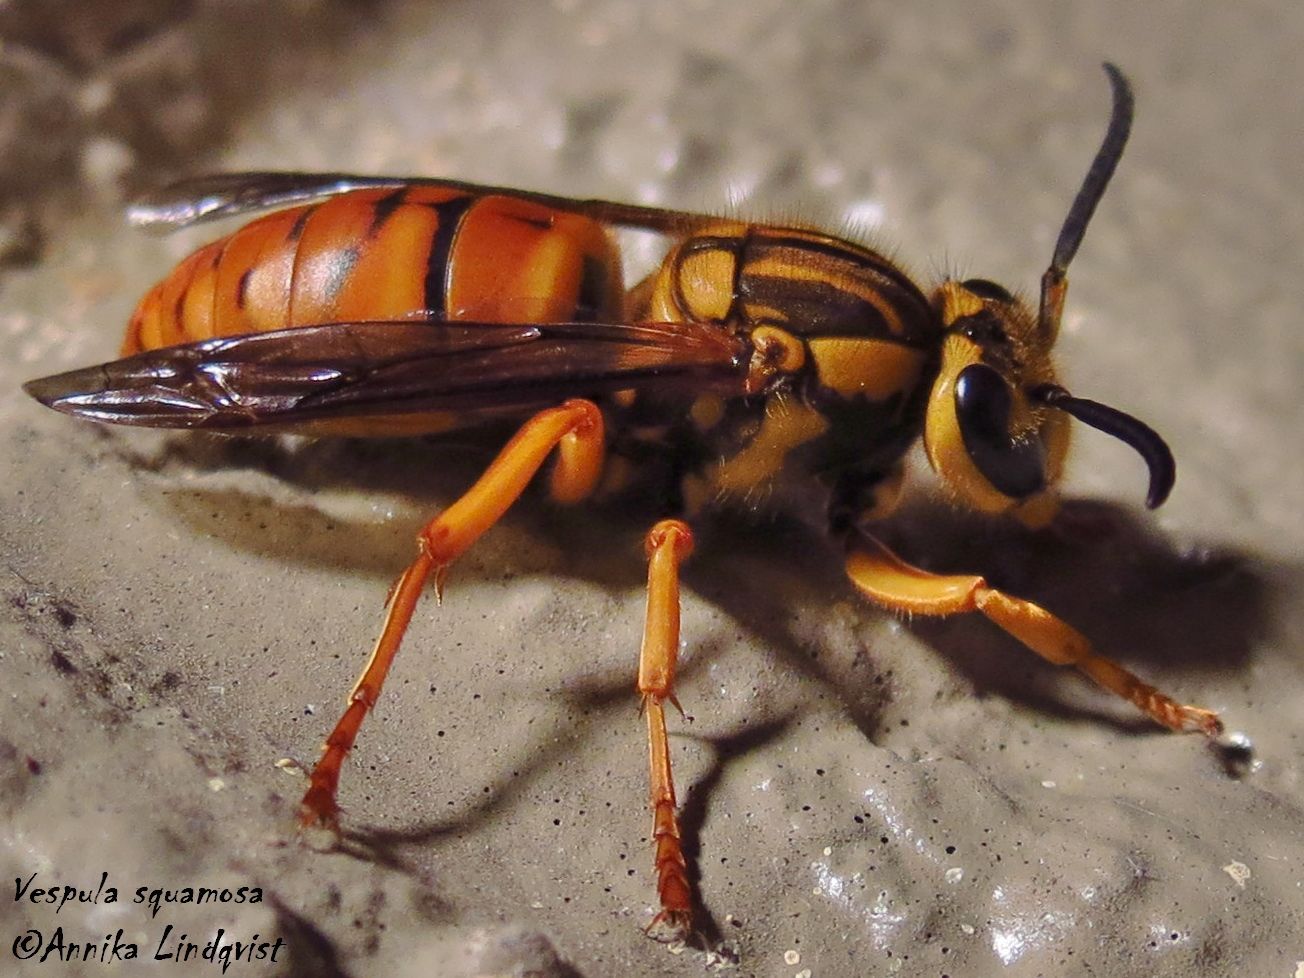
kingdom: Animalia
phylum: Arthropoda
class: Insecta
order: Hymenoptera
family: Vespidae
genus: Vespula
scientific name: Vespula squamosa
